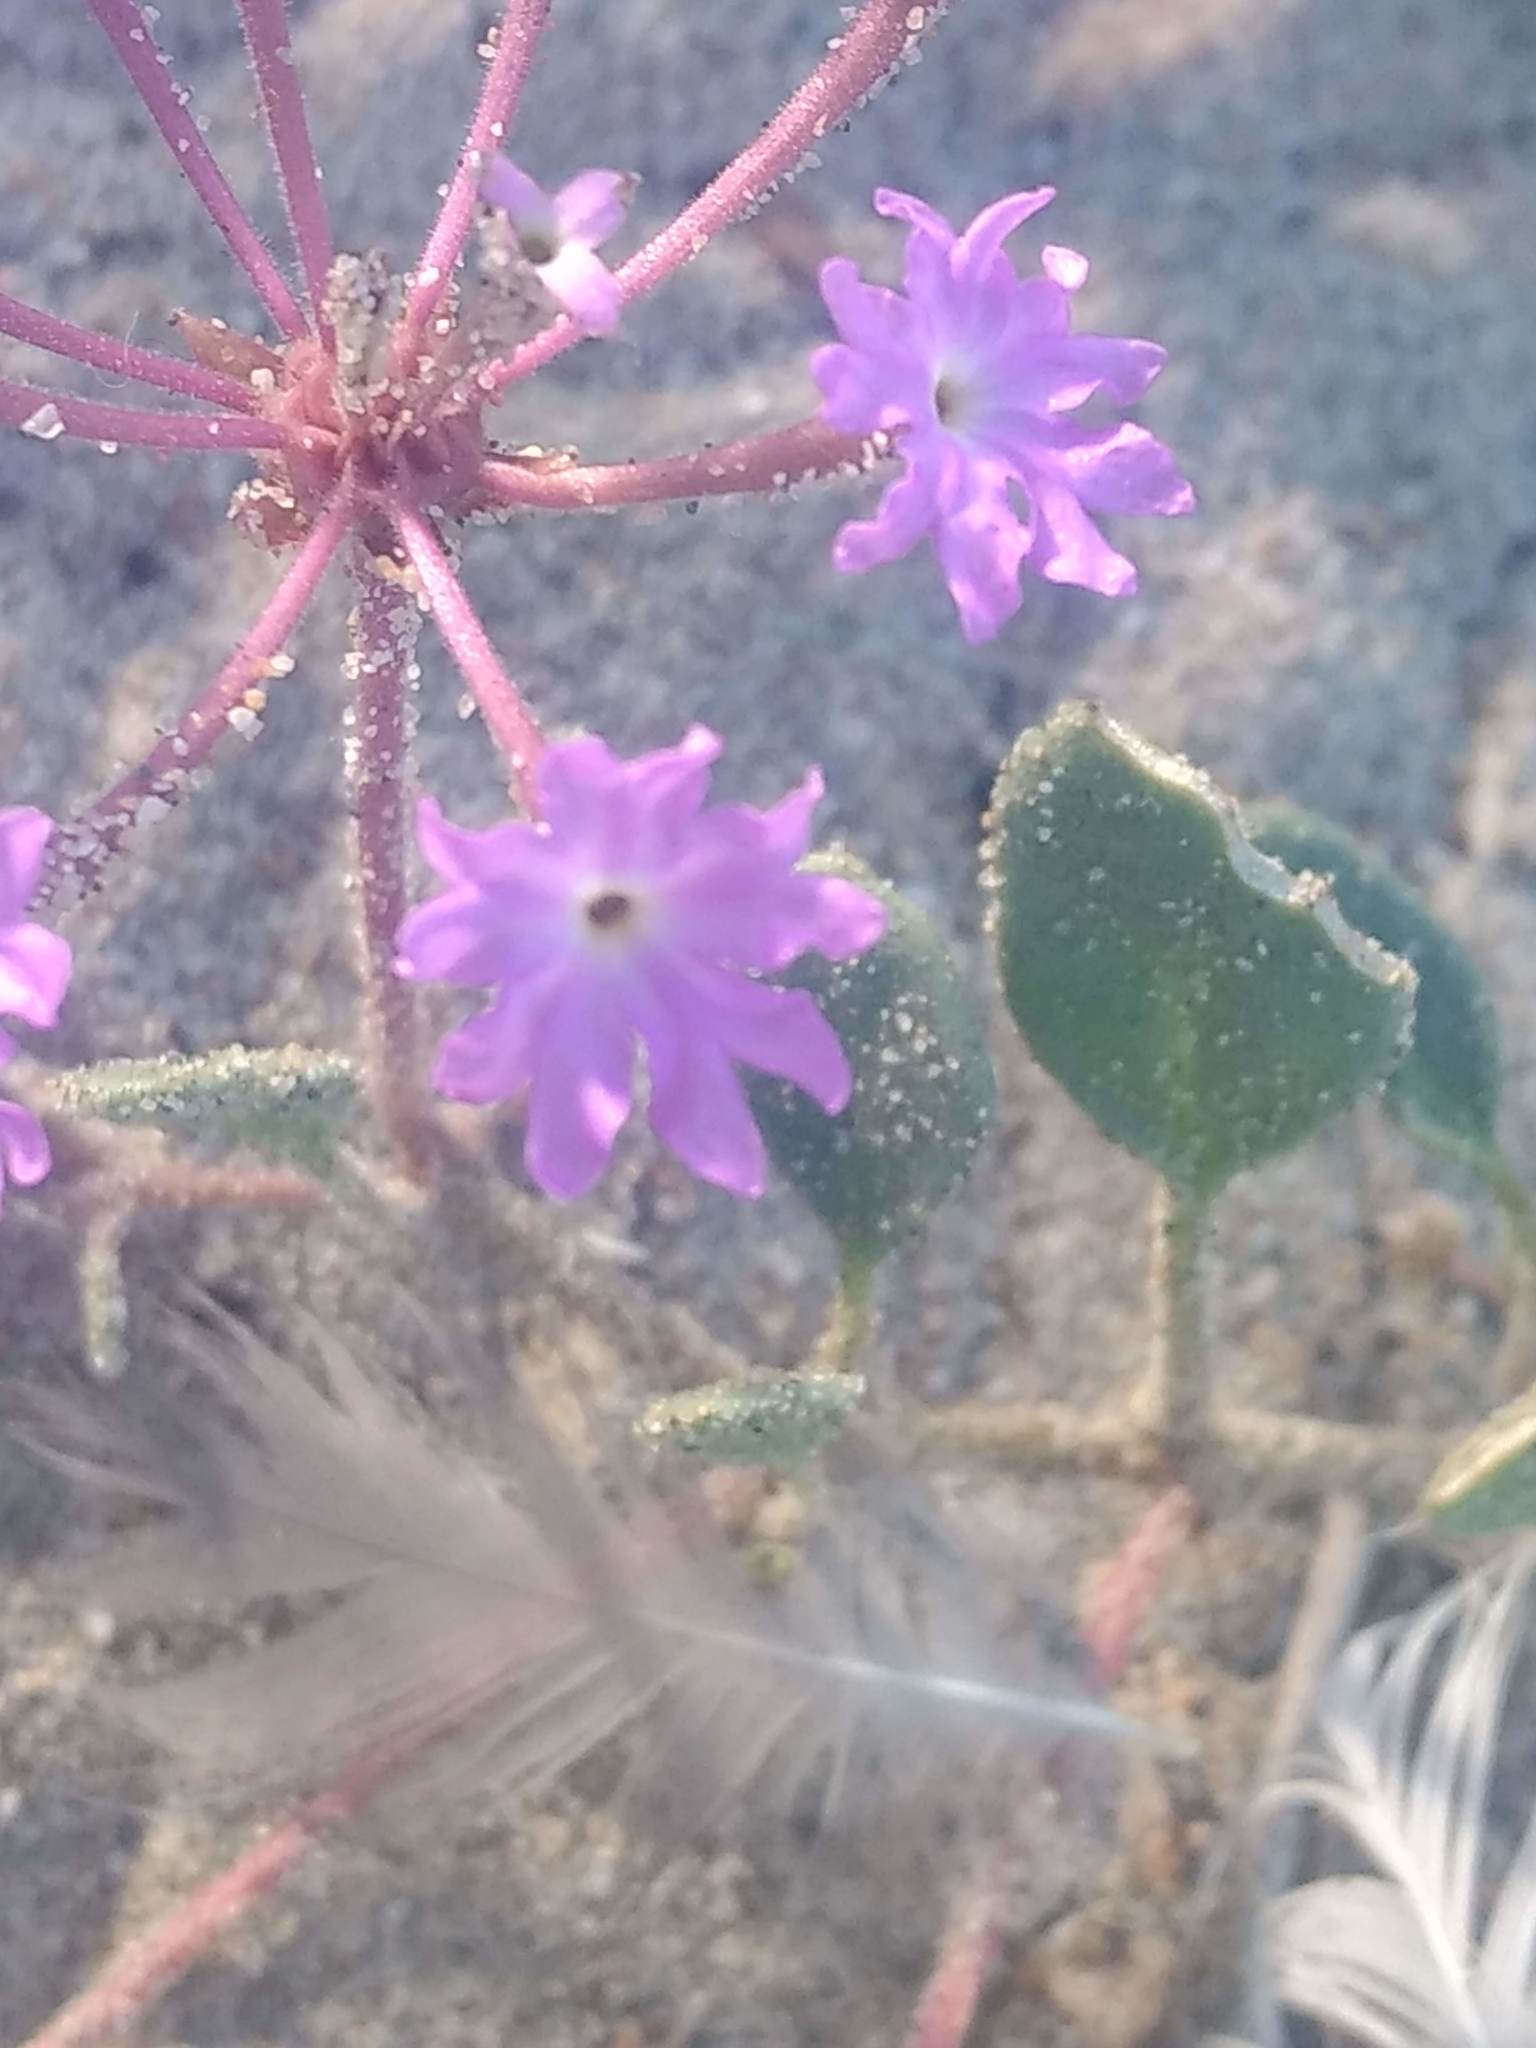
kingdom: Plantae
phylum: Tracheophyta
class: Magnoliopsida
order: Caryophyllales
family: Nyctaginaceae
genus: Abronia
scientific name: Abronia umbellata
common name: Sand-verbena
